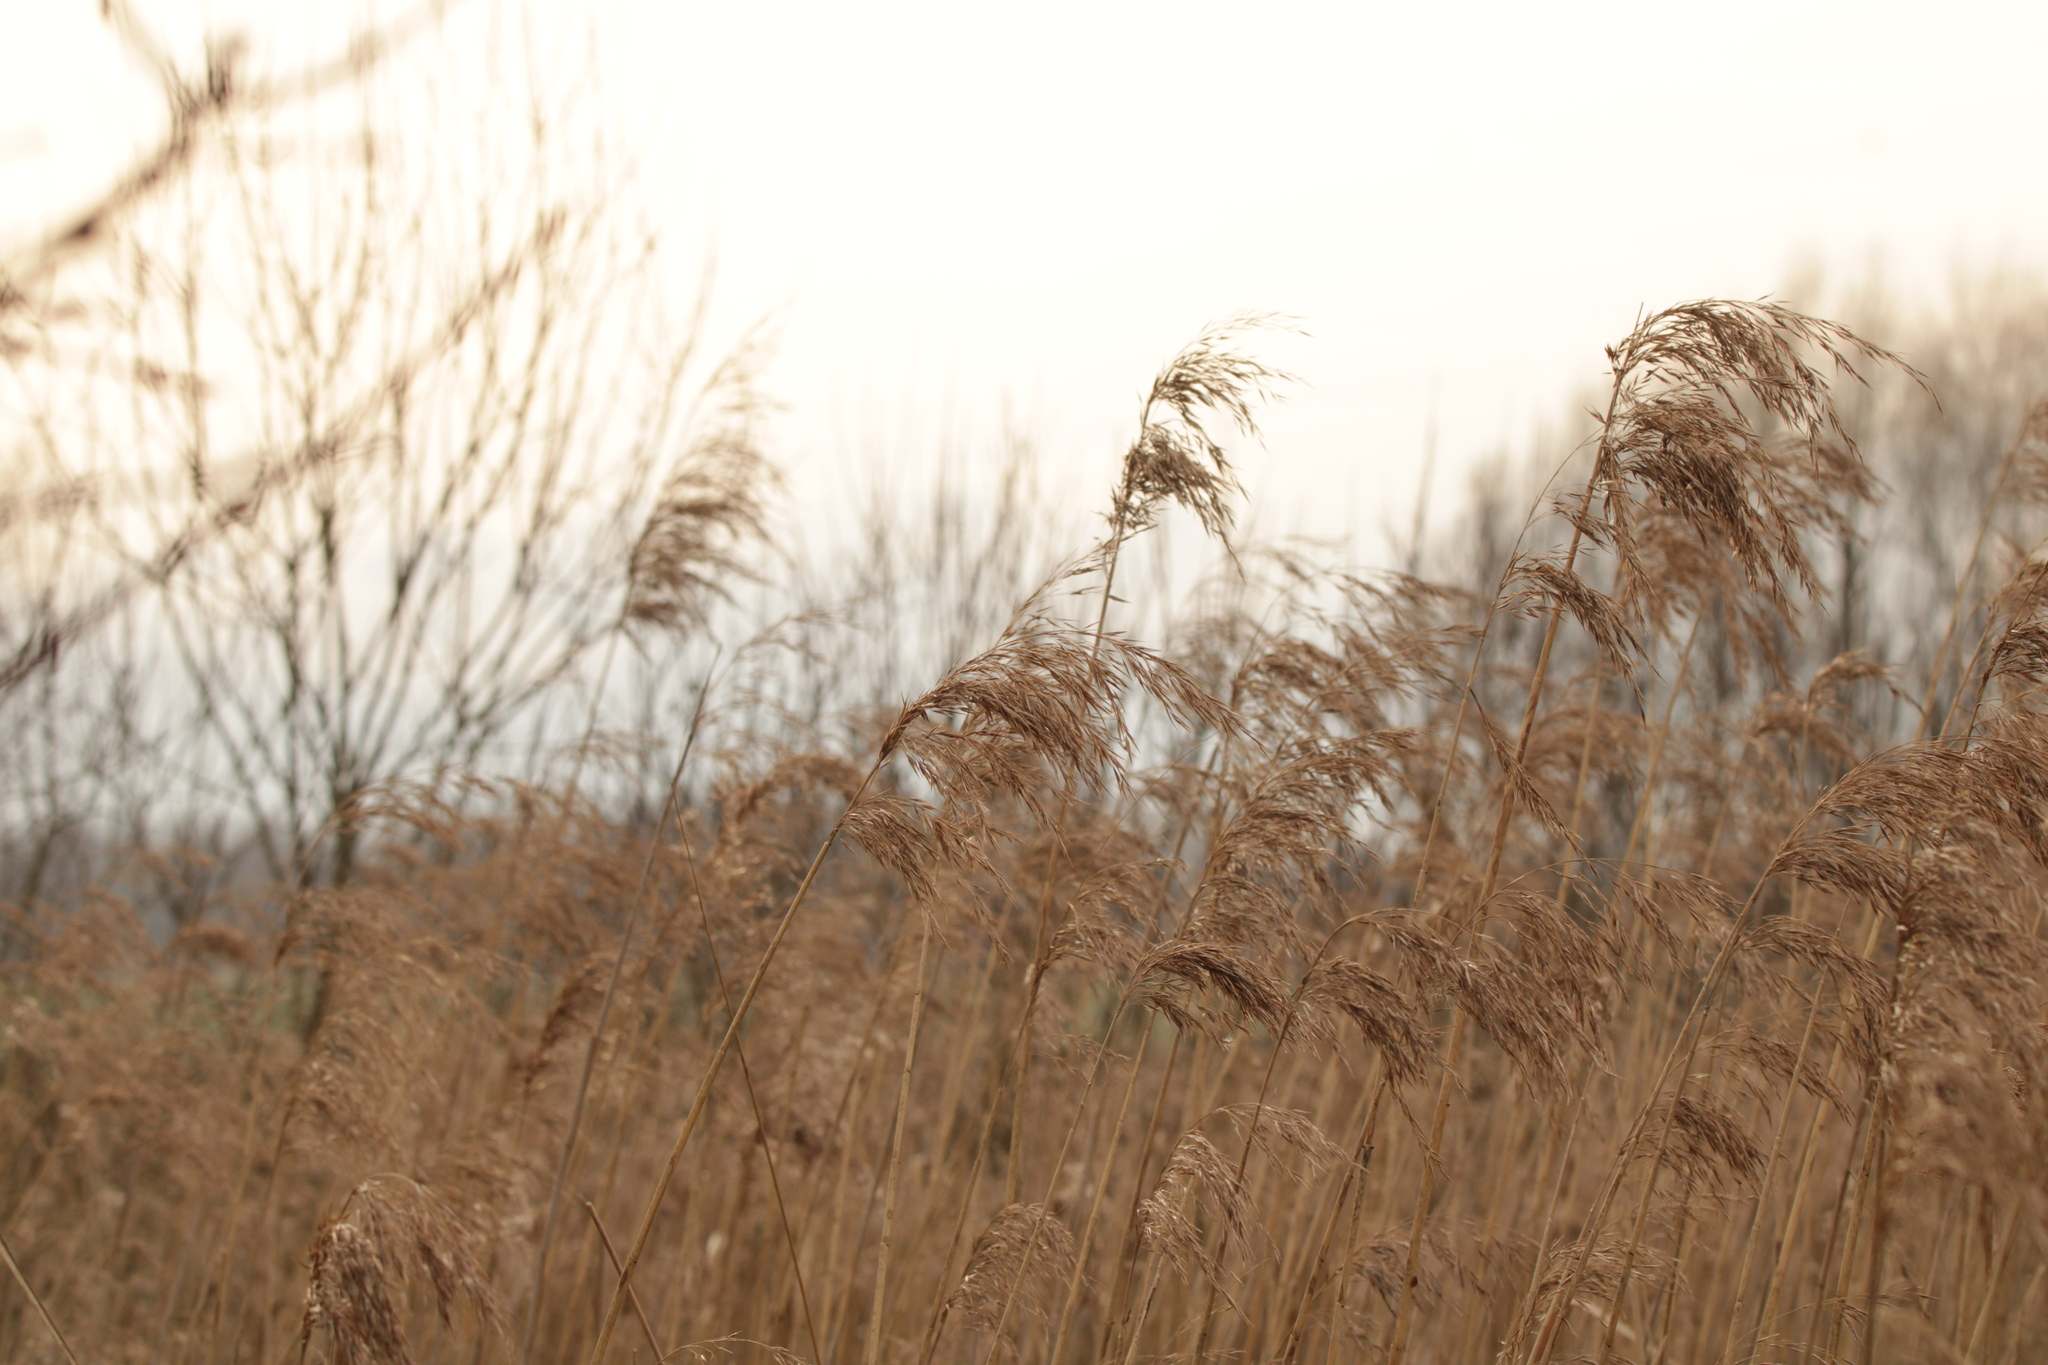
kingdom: Plantae
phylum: Tracheophyta
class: Liliopsida
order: Poales
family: Poaceae
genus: Phragmites
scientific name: Phragmites australis
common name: Common reed
